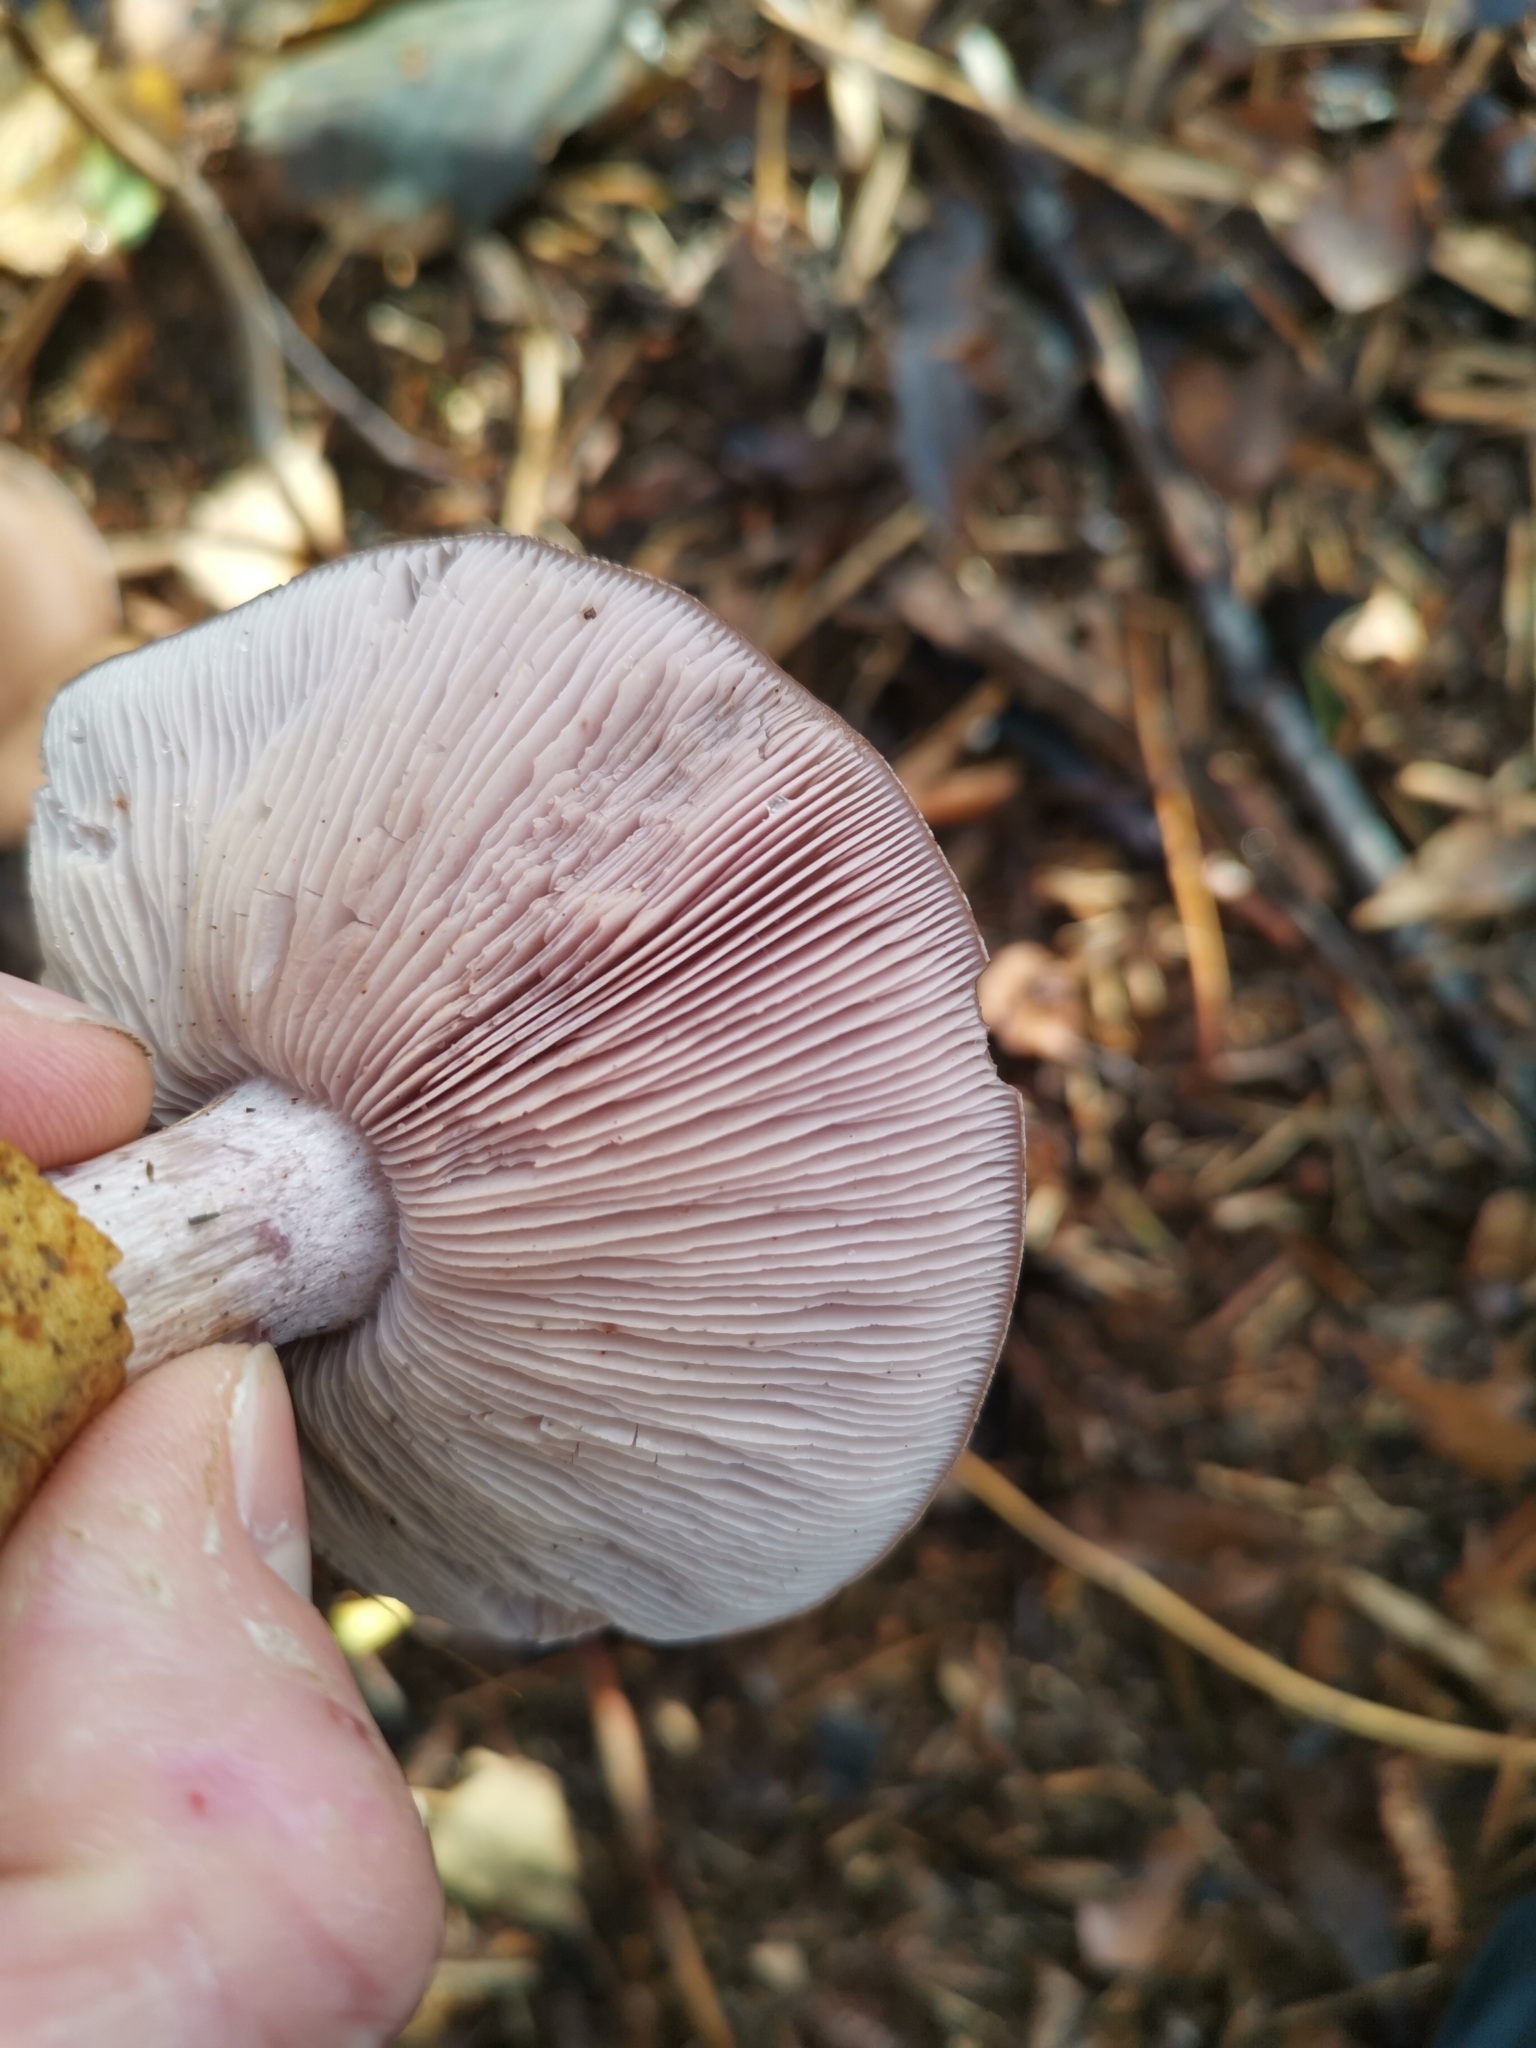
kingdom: Fungi
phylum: Basidiomycota
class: Agaricomycetes
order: Agaricales
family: Tricholomataceae
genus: Collybia
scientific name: Collybia
